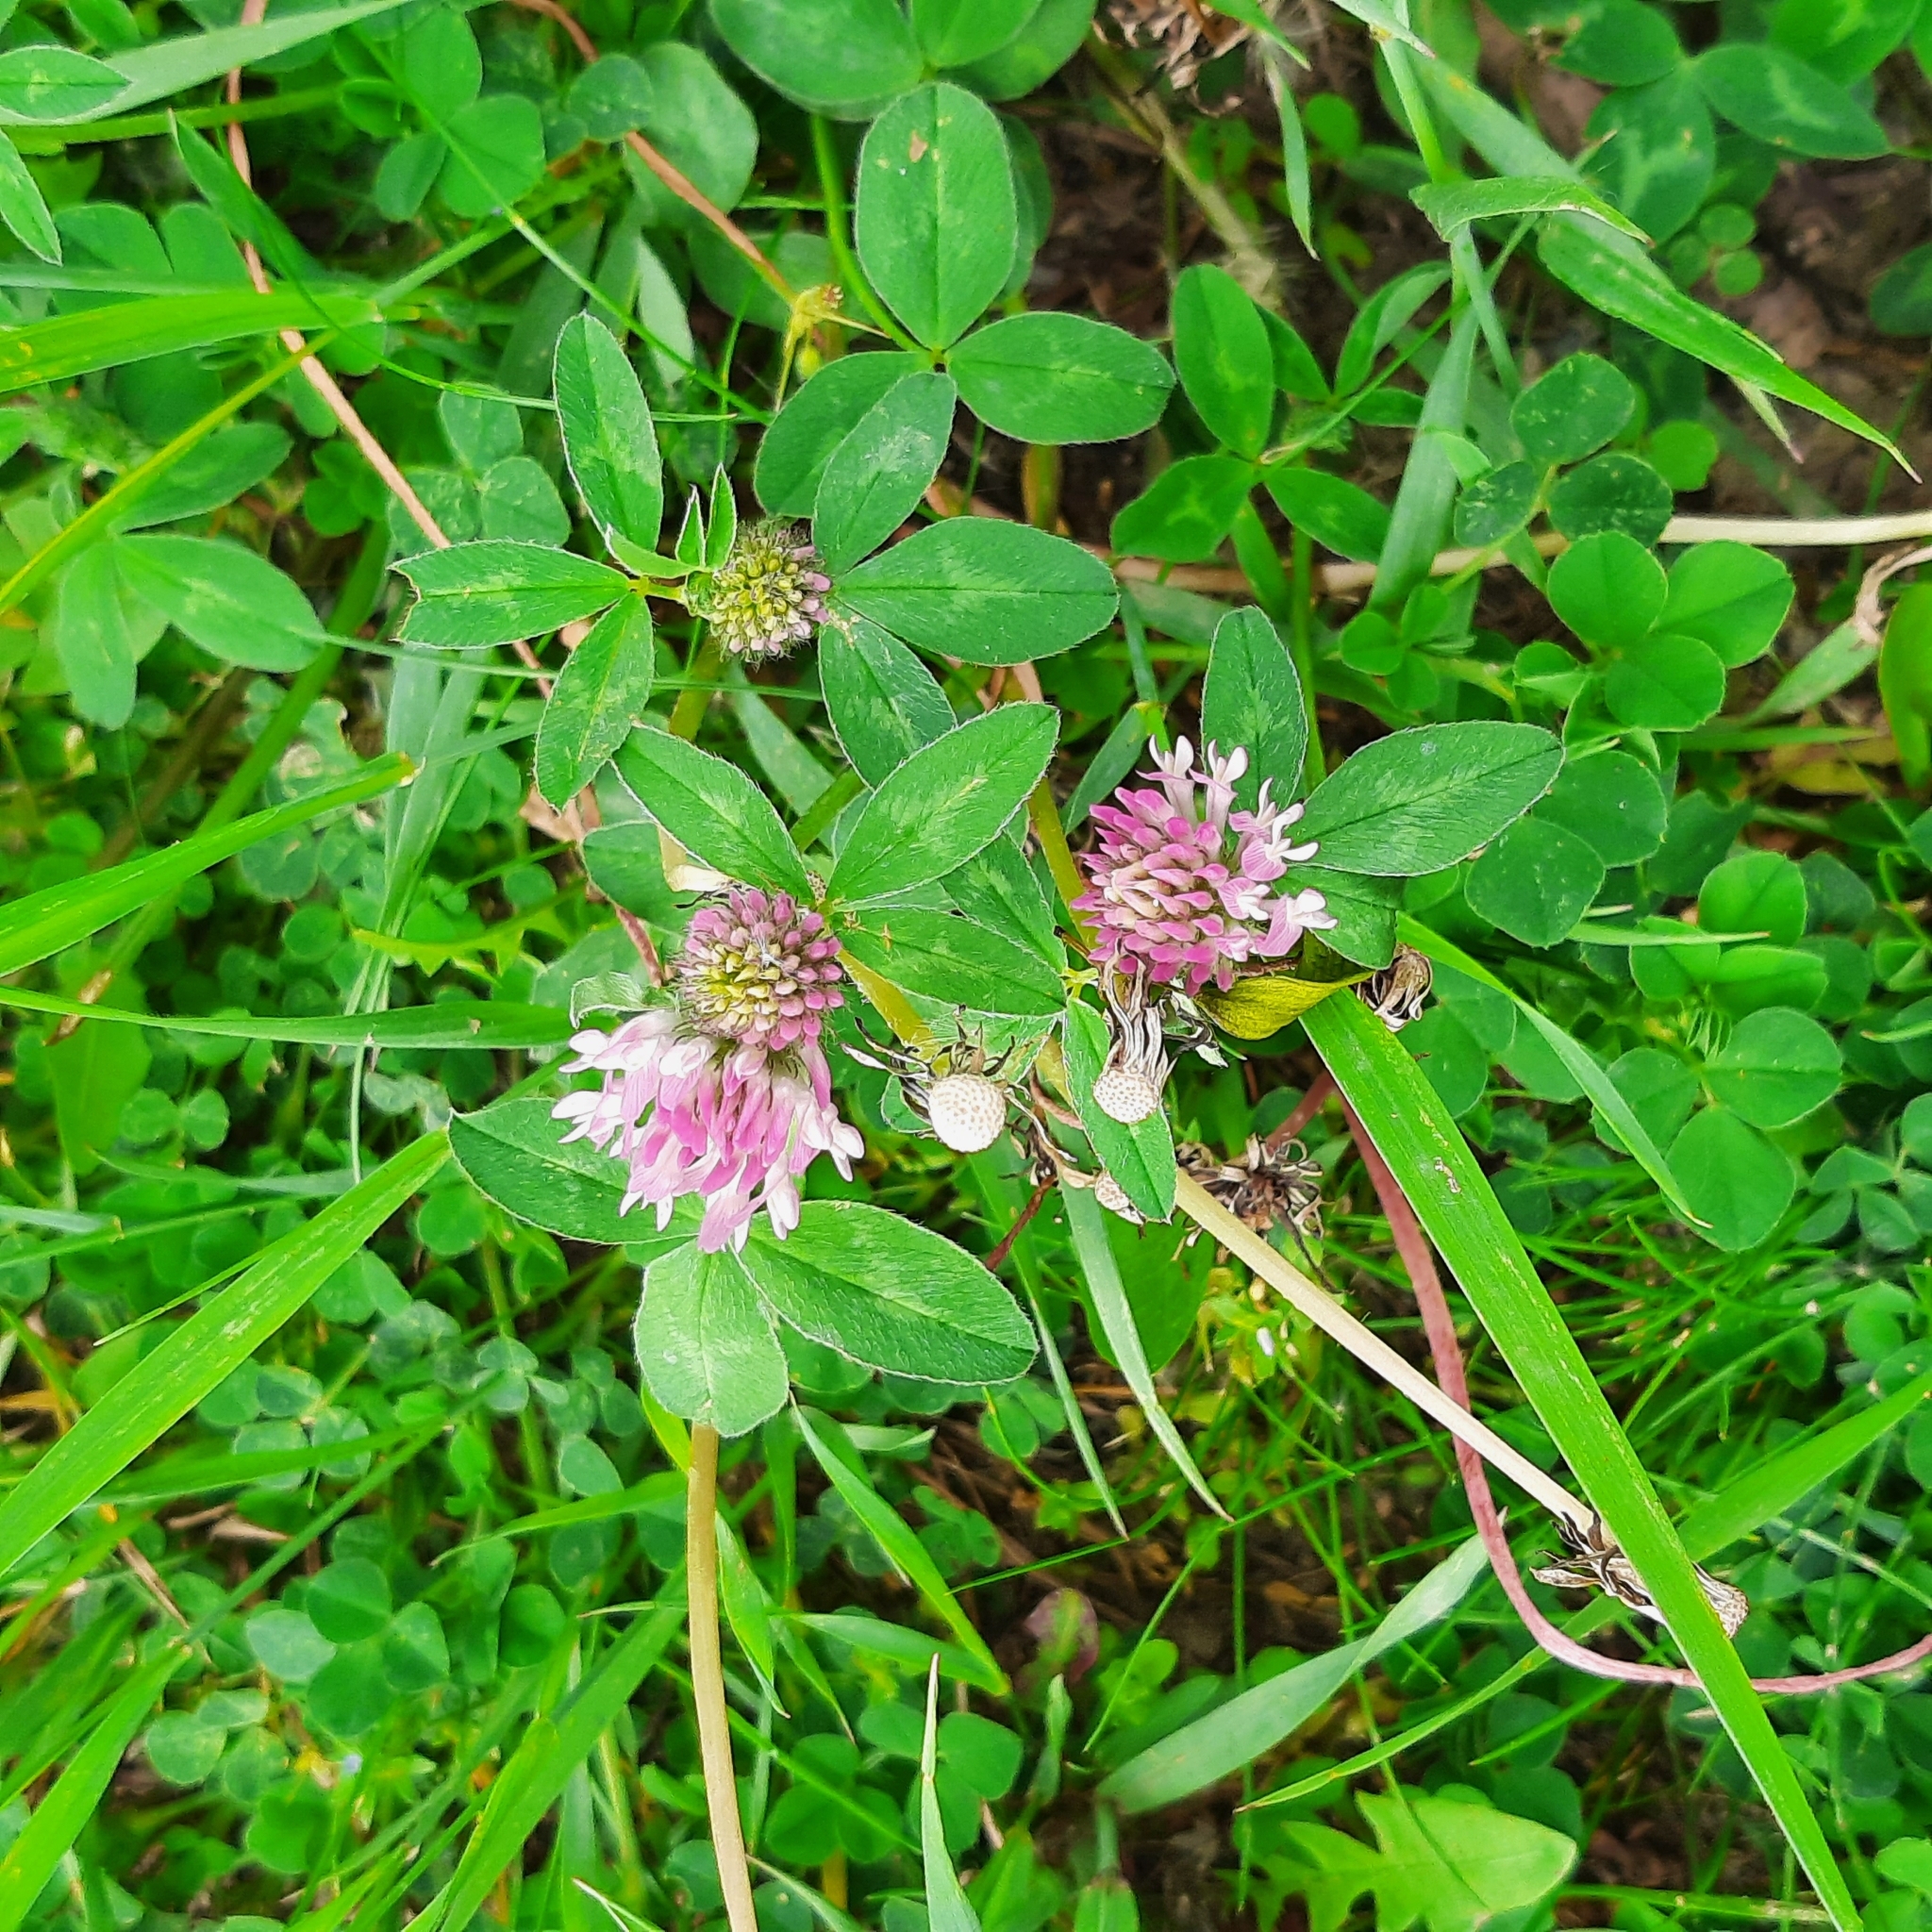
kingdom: Plantae
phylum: Tracheophyta
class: Magnoliopsida
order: Fabales
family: Fabaceae
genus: Trifolium
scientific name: Trifolium pratense
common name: Red clover
